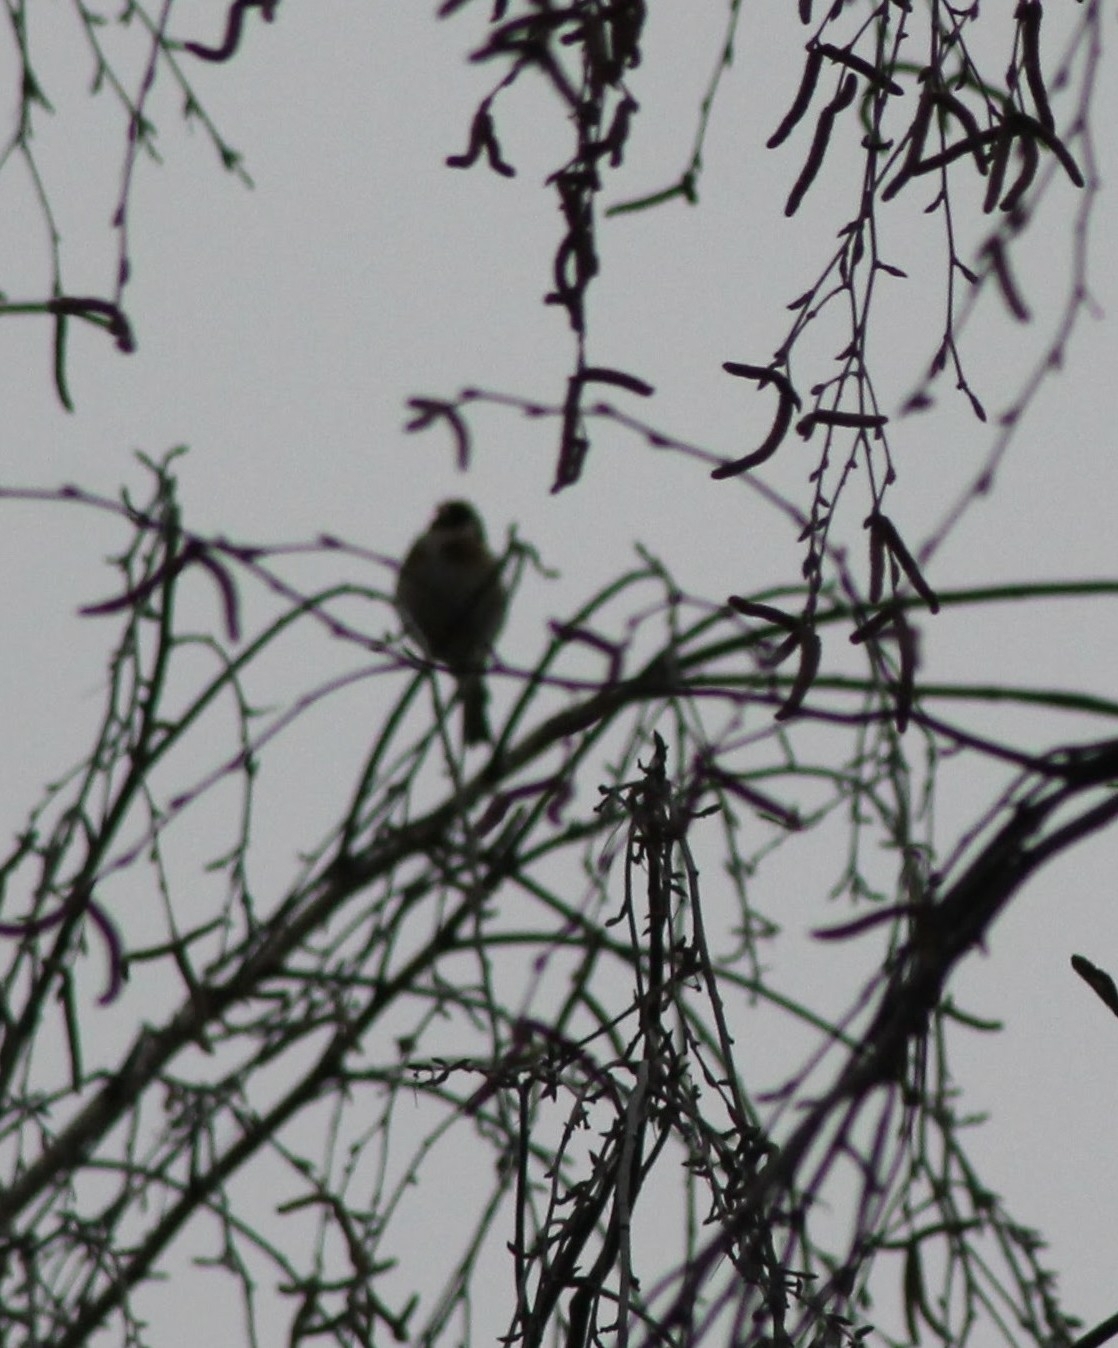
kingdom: Animalia
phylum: Chordata
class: Aves
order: Passeriformes
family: Fringillidae
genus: Carduelis
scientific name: Carduelis carduelis
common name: European goldfinch
